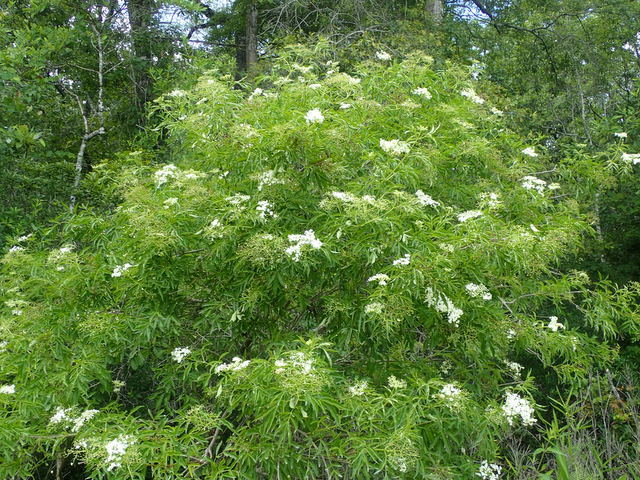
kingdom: Plantae
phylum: Tracheophyta
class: Magnoliopsida
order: Dipsacales
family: Viburnaceae
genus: Sambucus
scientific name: Sambucus canadensis
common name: American elder
